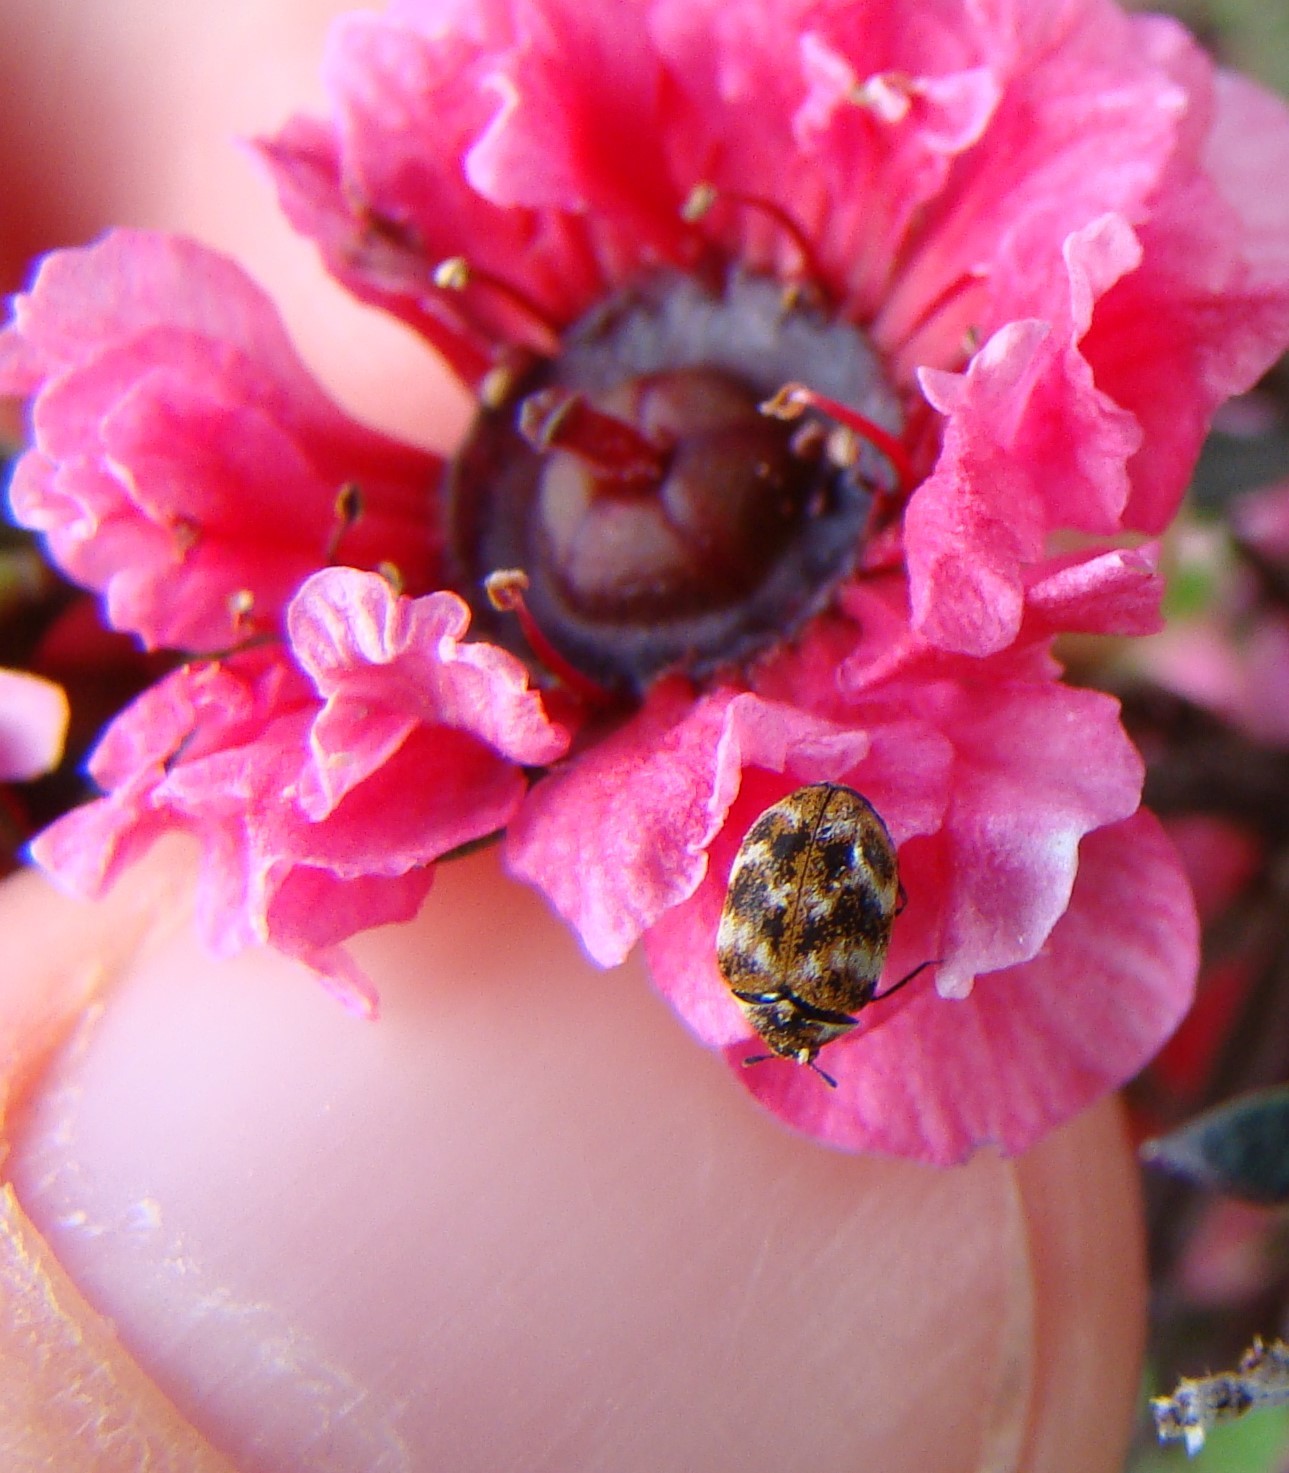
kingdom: Animalia
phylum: Arthropoda
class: Insecta
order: Coleoptera
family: Dermestidae
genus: Anthrenus
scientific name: Anthrenus verbasci
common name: Varied carpet beetle
